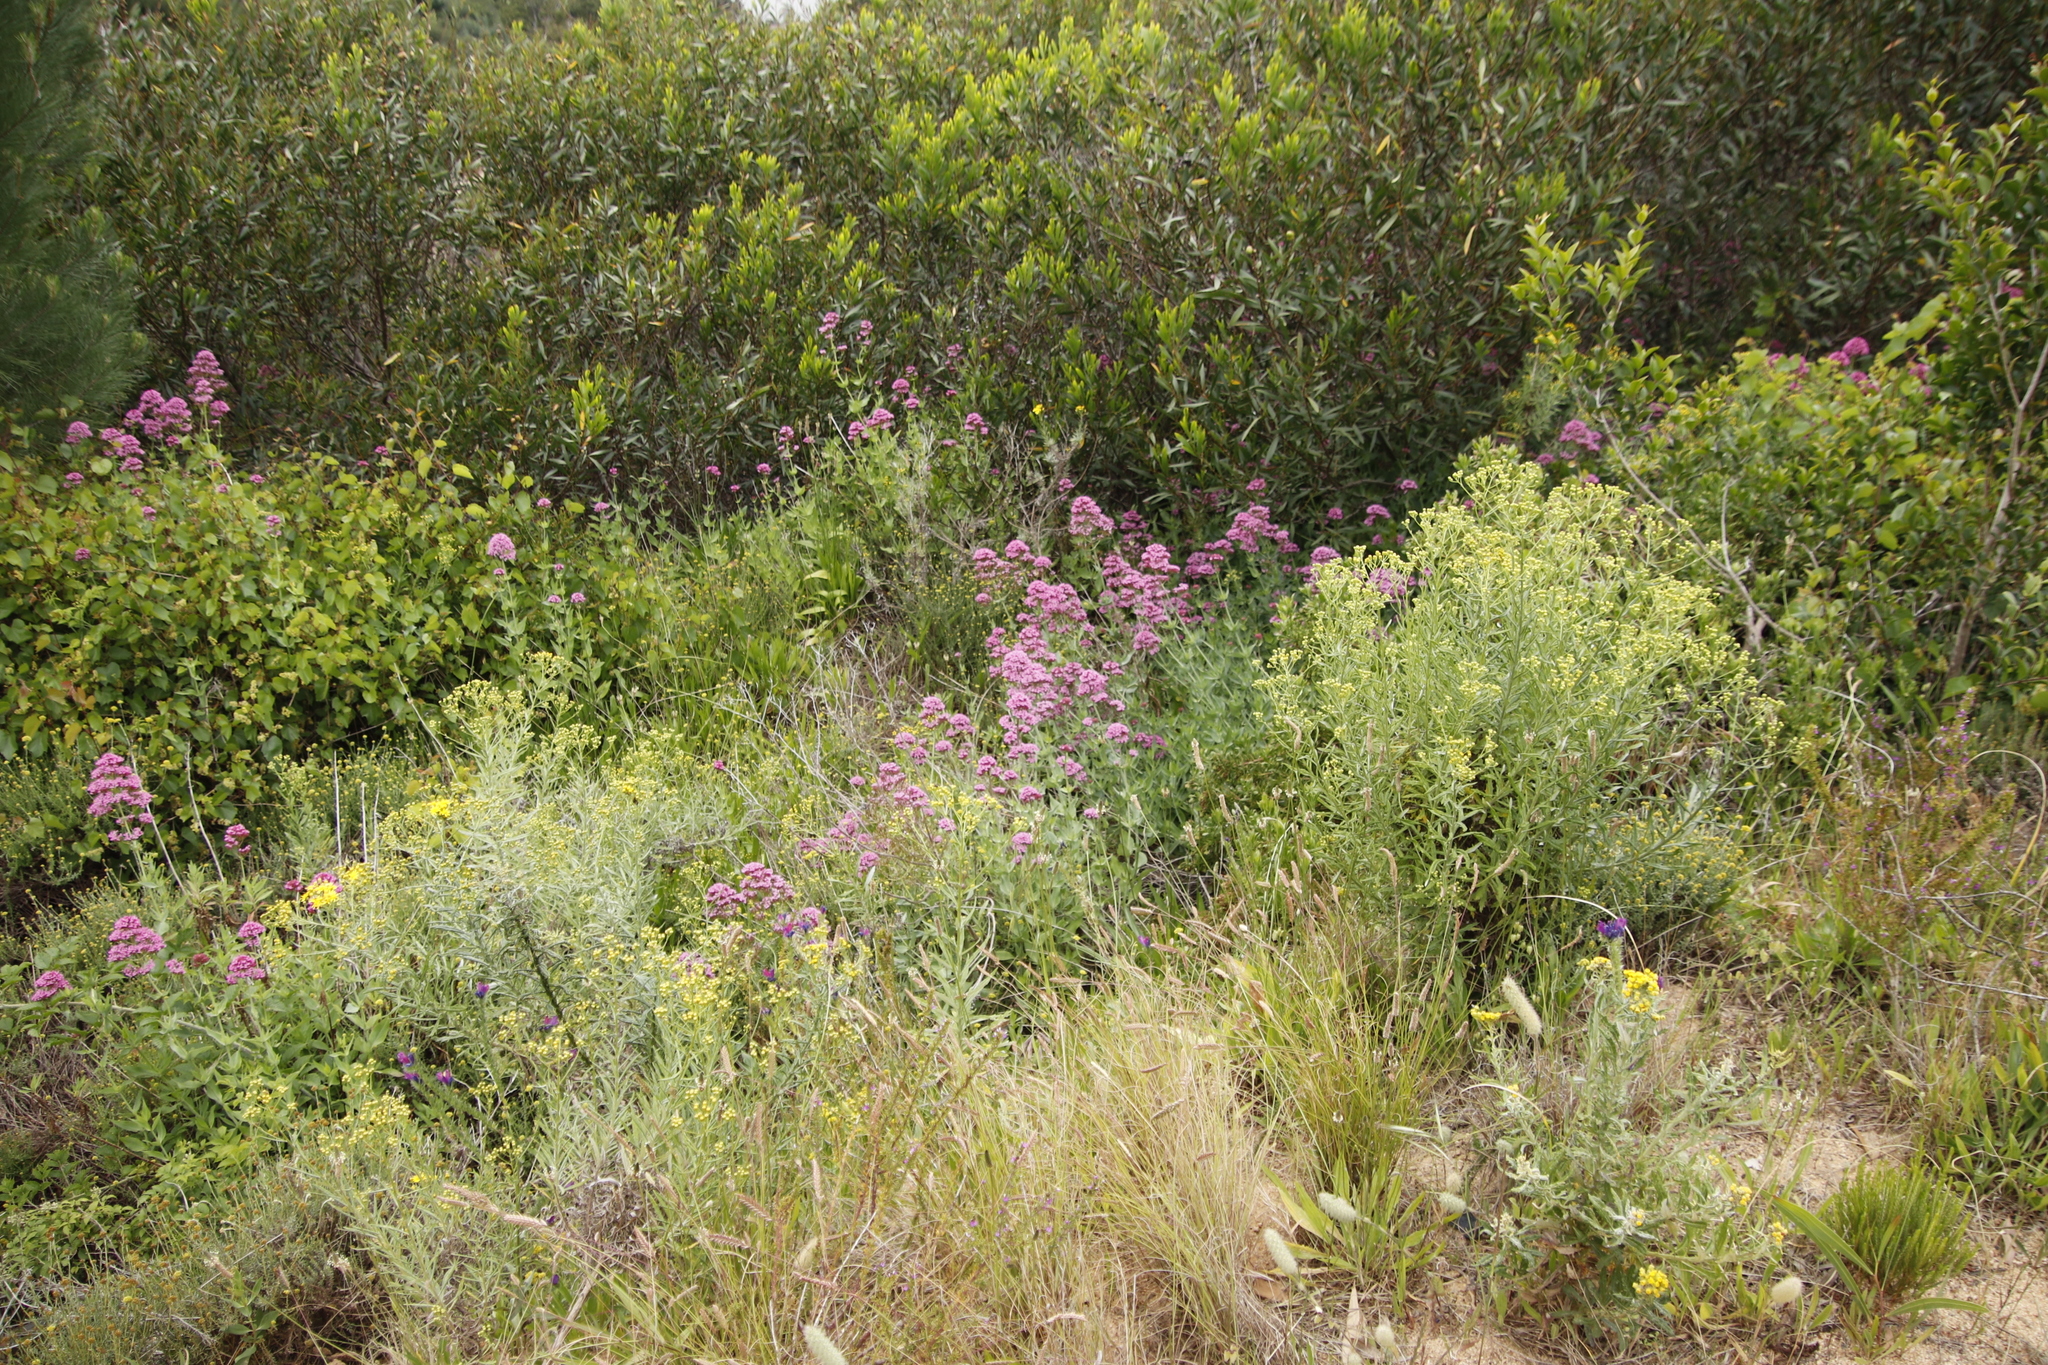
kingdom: Plantae
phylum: Tracheophyta
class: Magnoliopsida
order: Dipsacales
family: Caprifoliaceae
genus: Centranthus
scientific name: Centranthus ruber
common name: Red valerian
